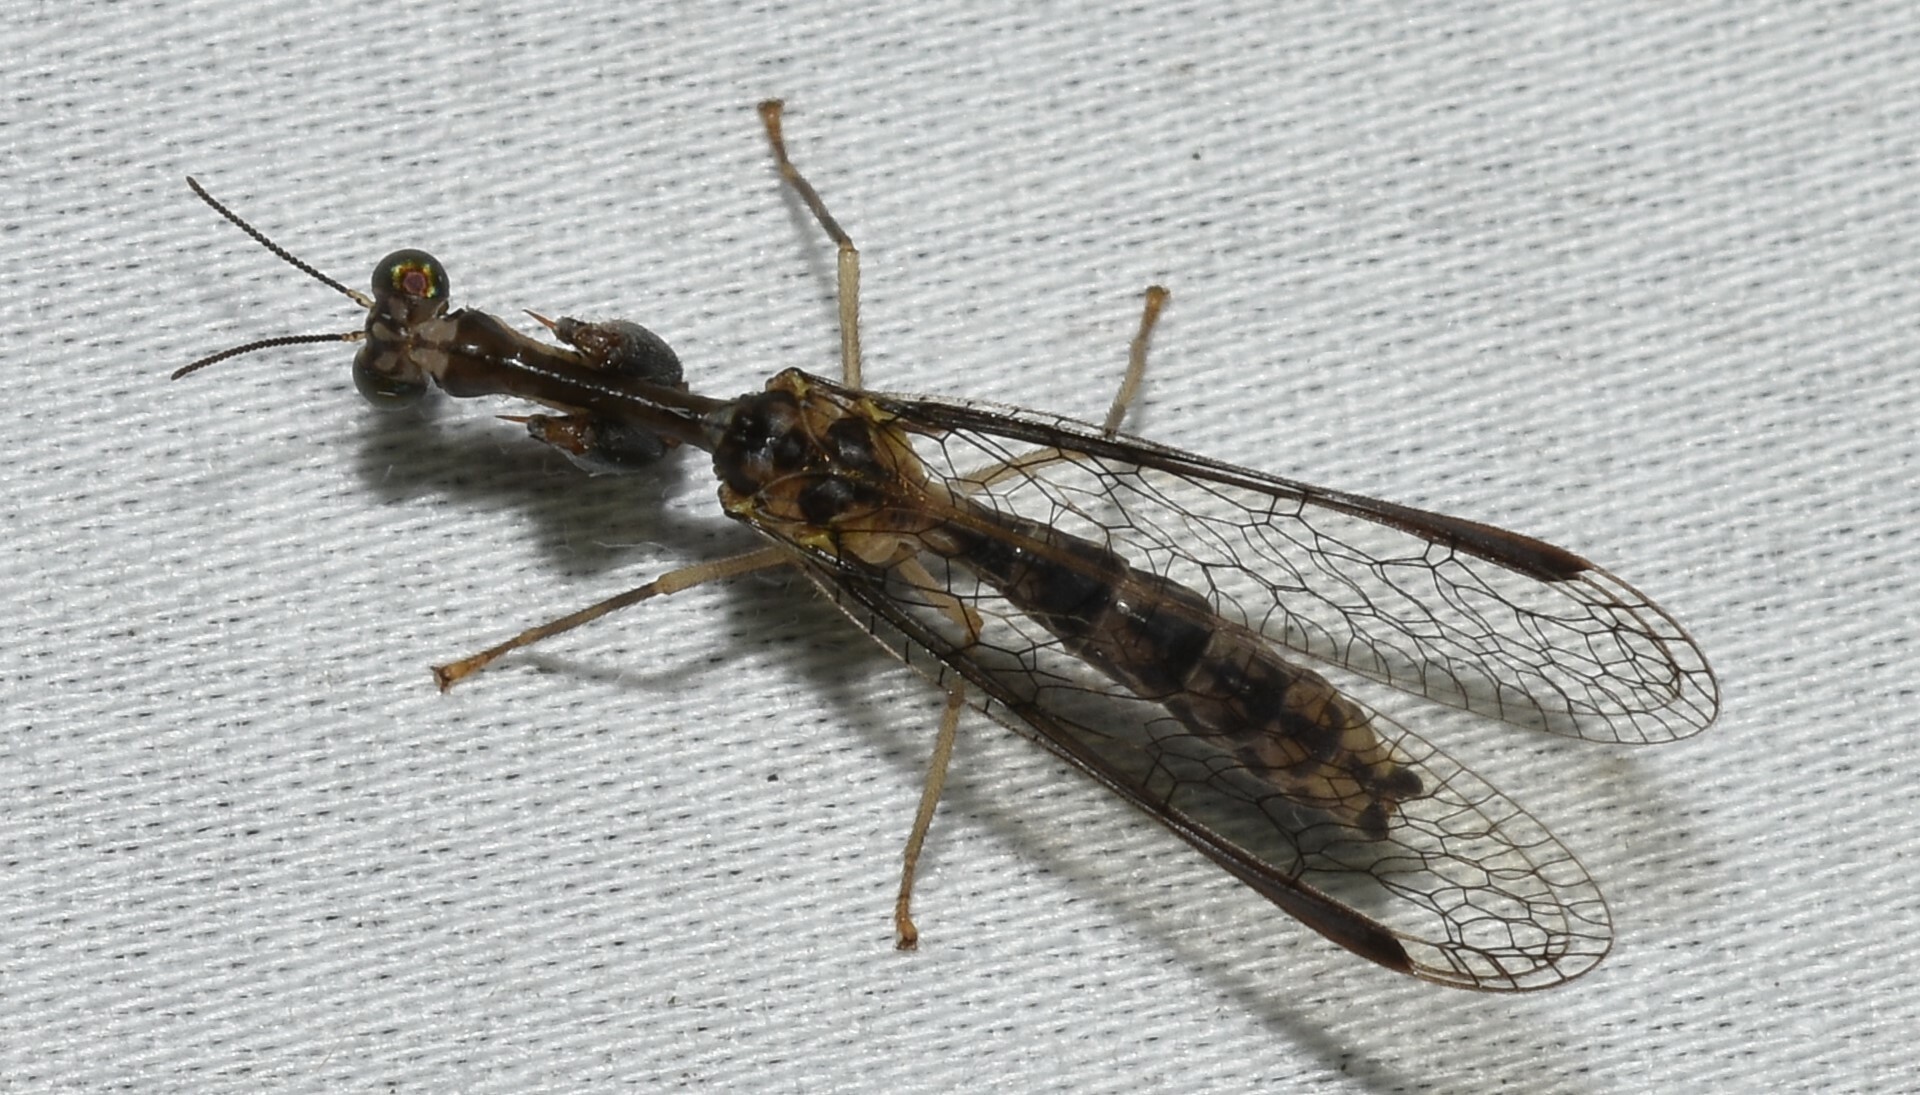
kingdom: Animalia
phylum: Arthropoda
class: Insecta
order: Neuroptera
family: Mantispidae
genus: Dicromantispa
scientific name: Dicromantispa sayi
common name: Say's mantidfly
